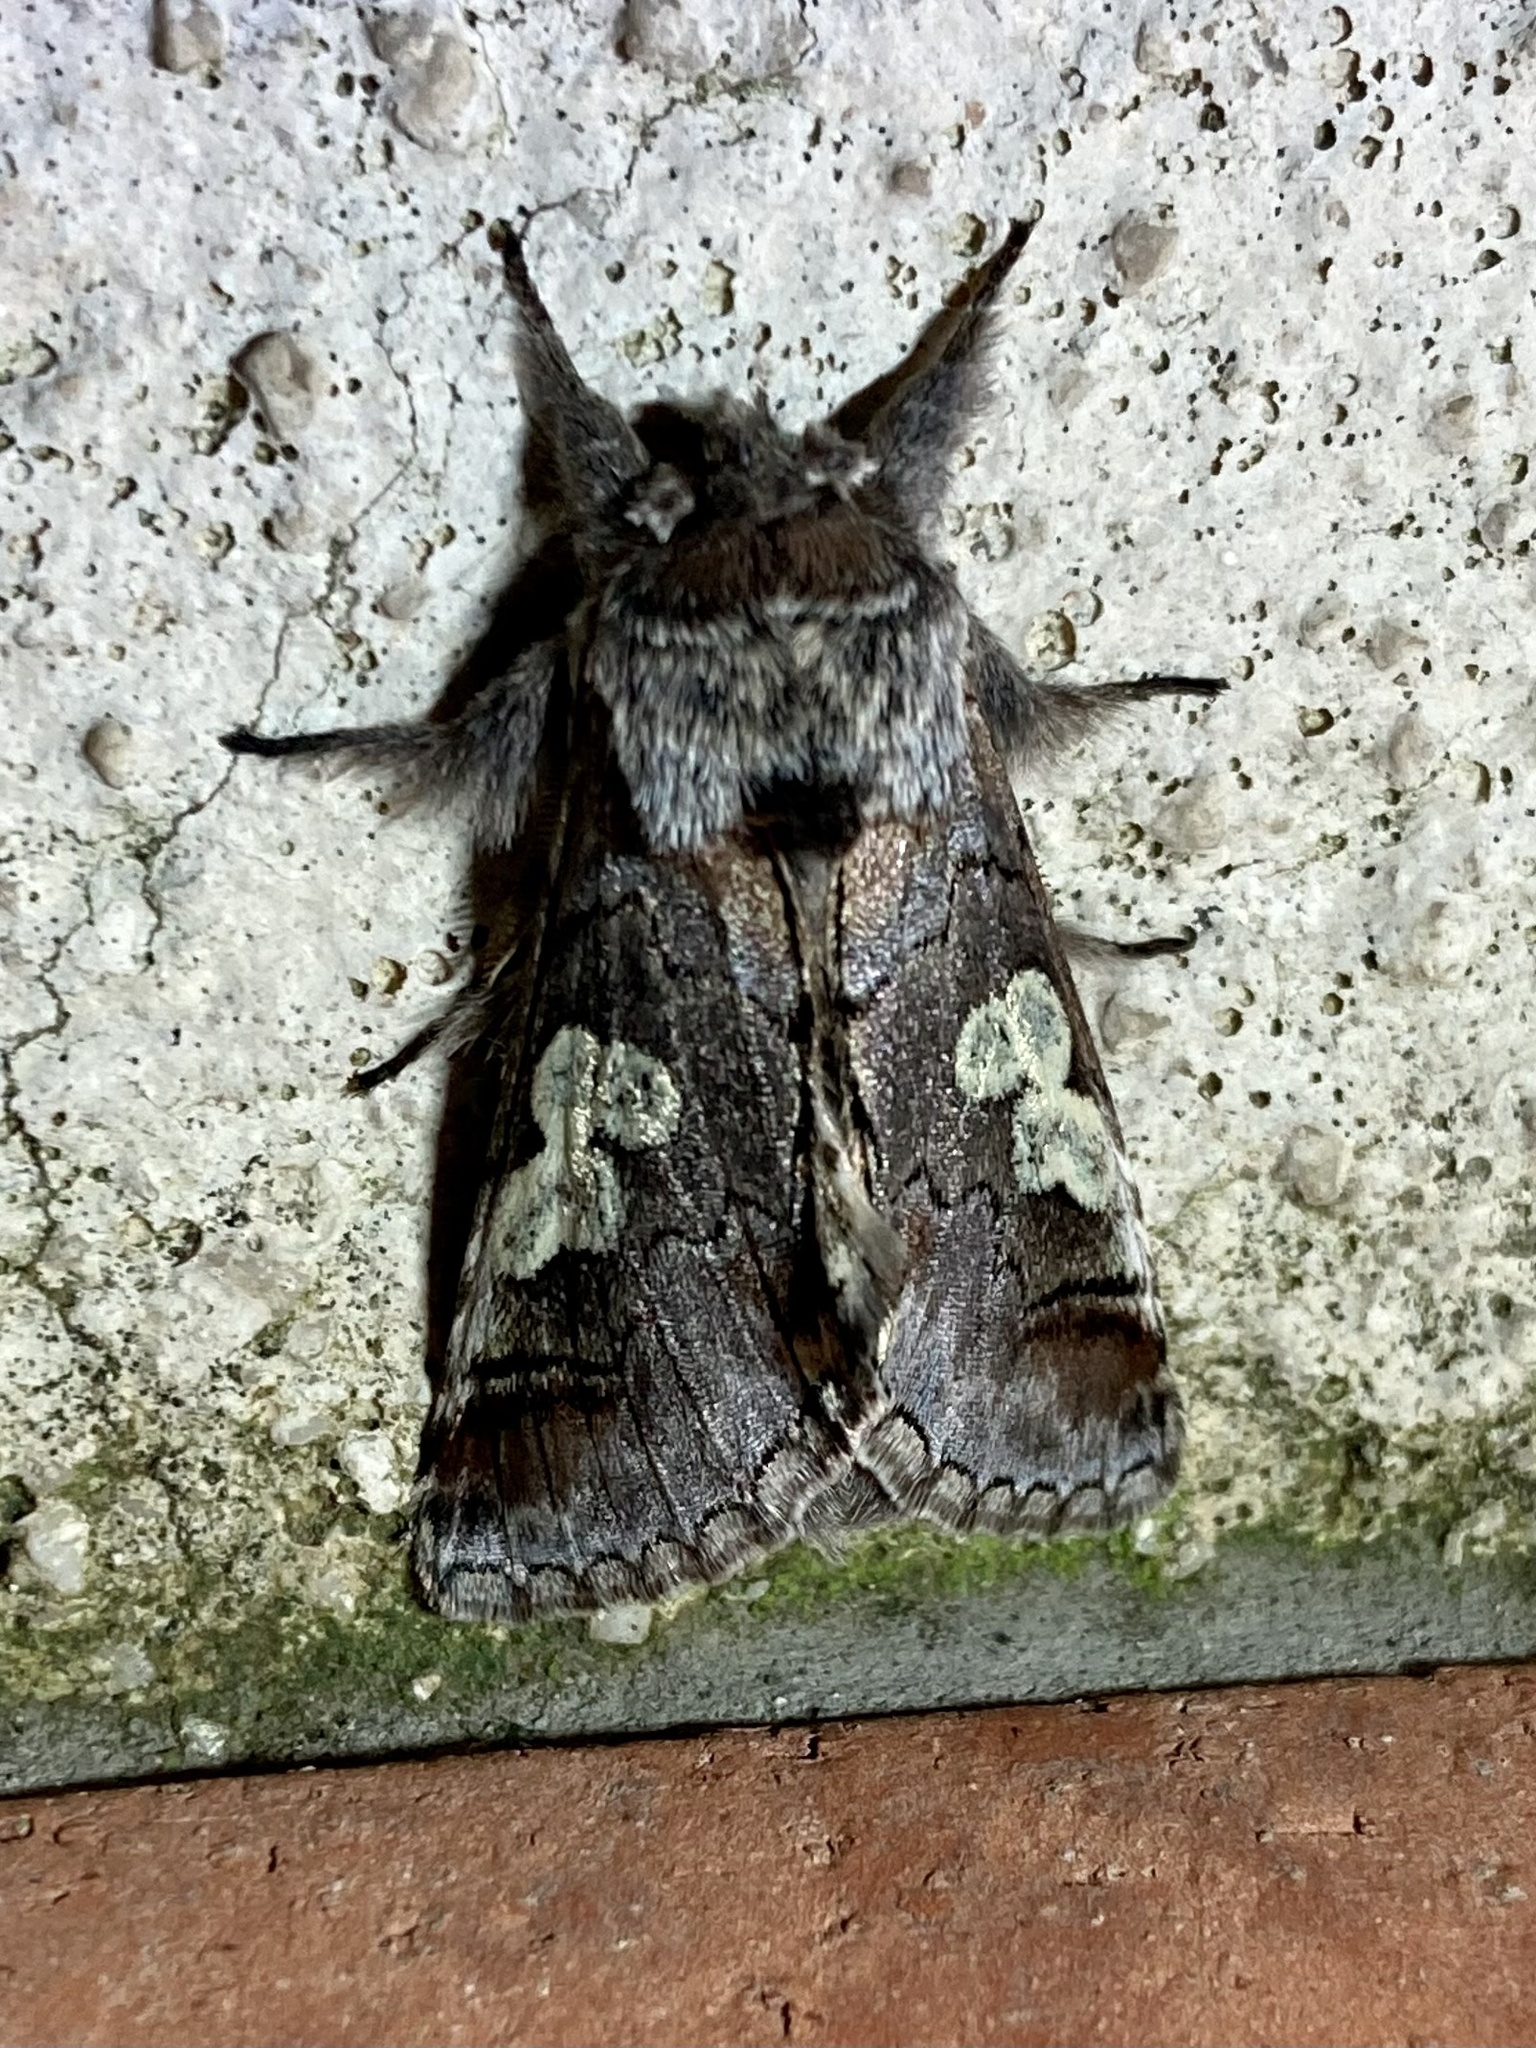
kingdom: Animalia
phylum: Arthropoda
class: Insecta
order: Lepidoptera
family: Noctuidae
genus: Diloba
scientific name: Diloba caeruleocephala
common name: Figure of eight
